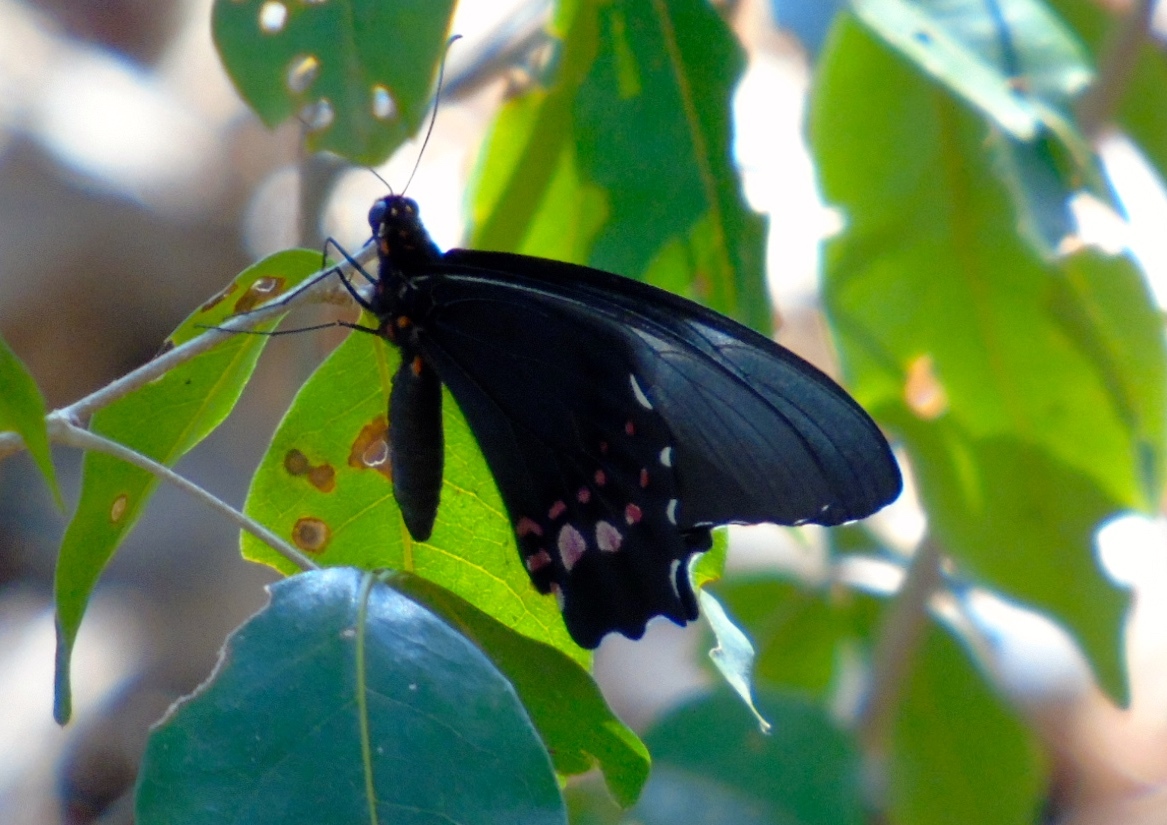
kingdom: Animalia
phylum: Arthropoda
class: Insecta
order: Lepidoptera
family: Papilionidae
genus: Papilio
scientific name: Papilio anchisiades
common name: Idaes swallowtail
